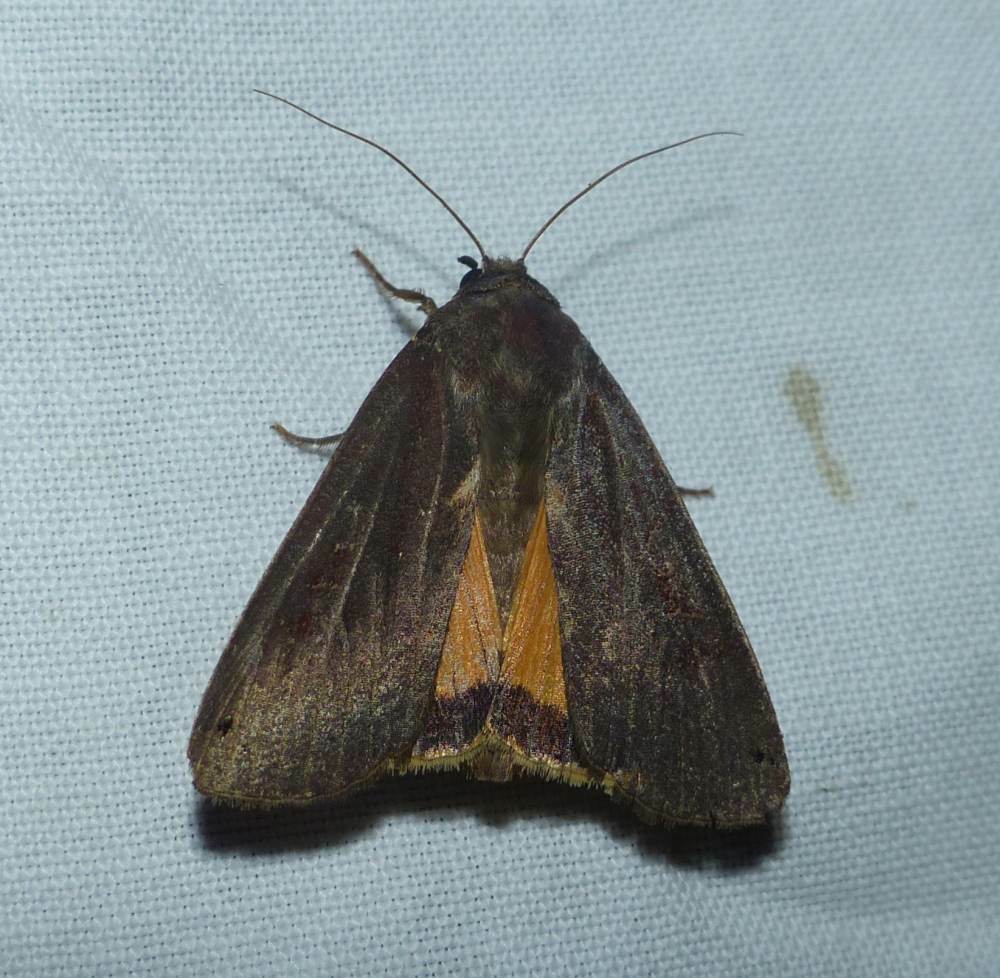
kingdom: Animalia
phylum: Arthropoda
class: Insecta
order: Lepidoptera
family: Noctuidae
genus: Noctua
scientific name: Noctua pronuba
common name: Large yellow underwing
